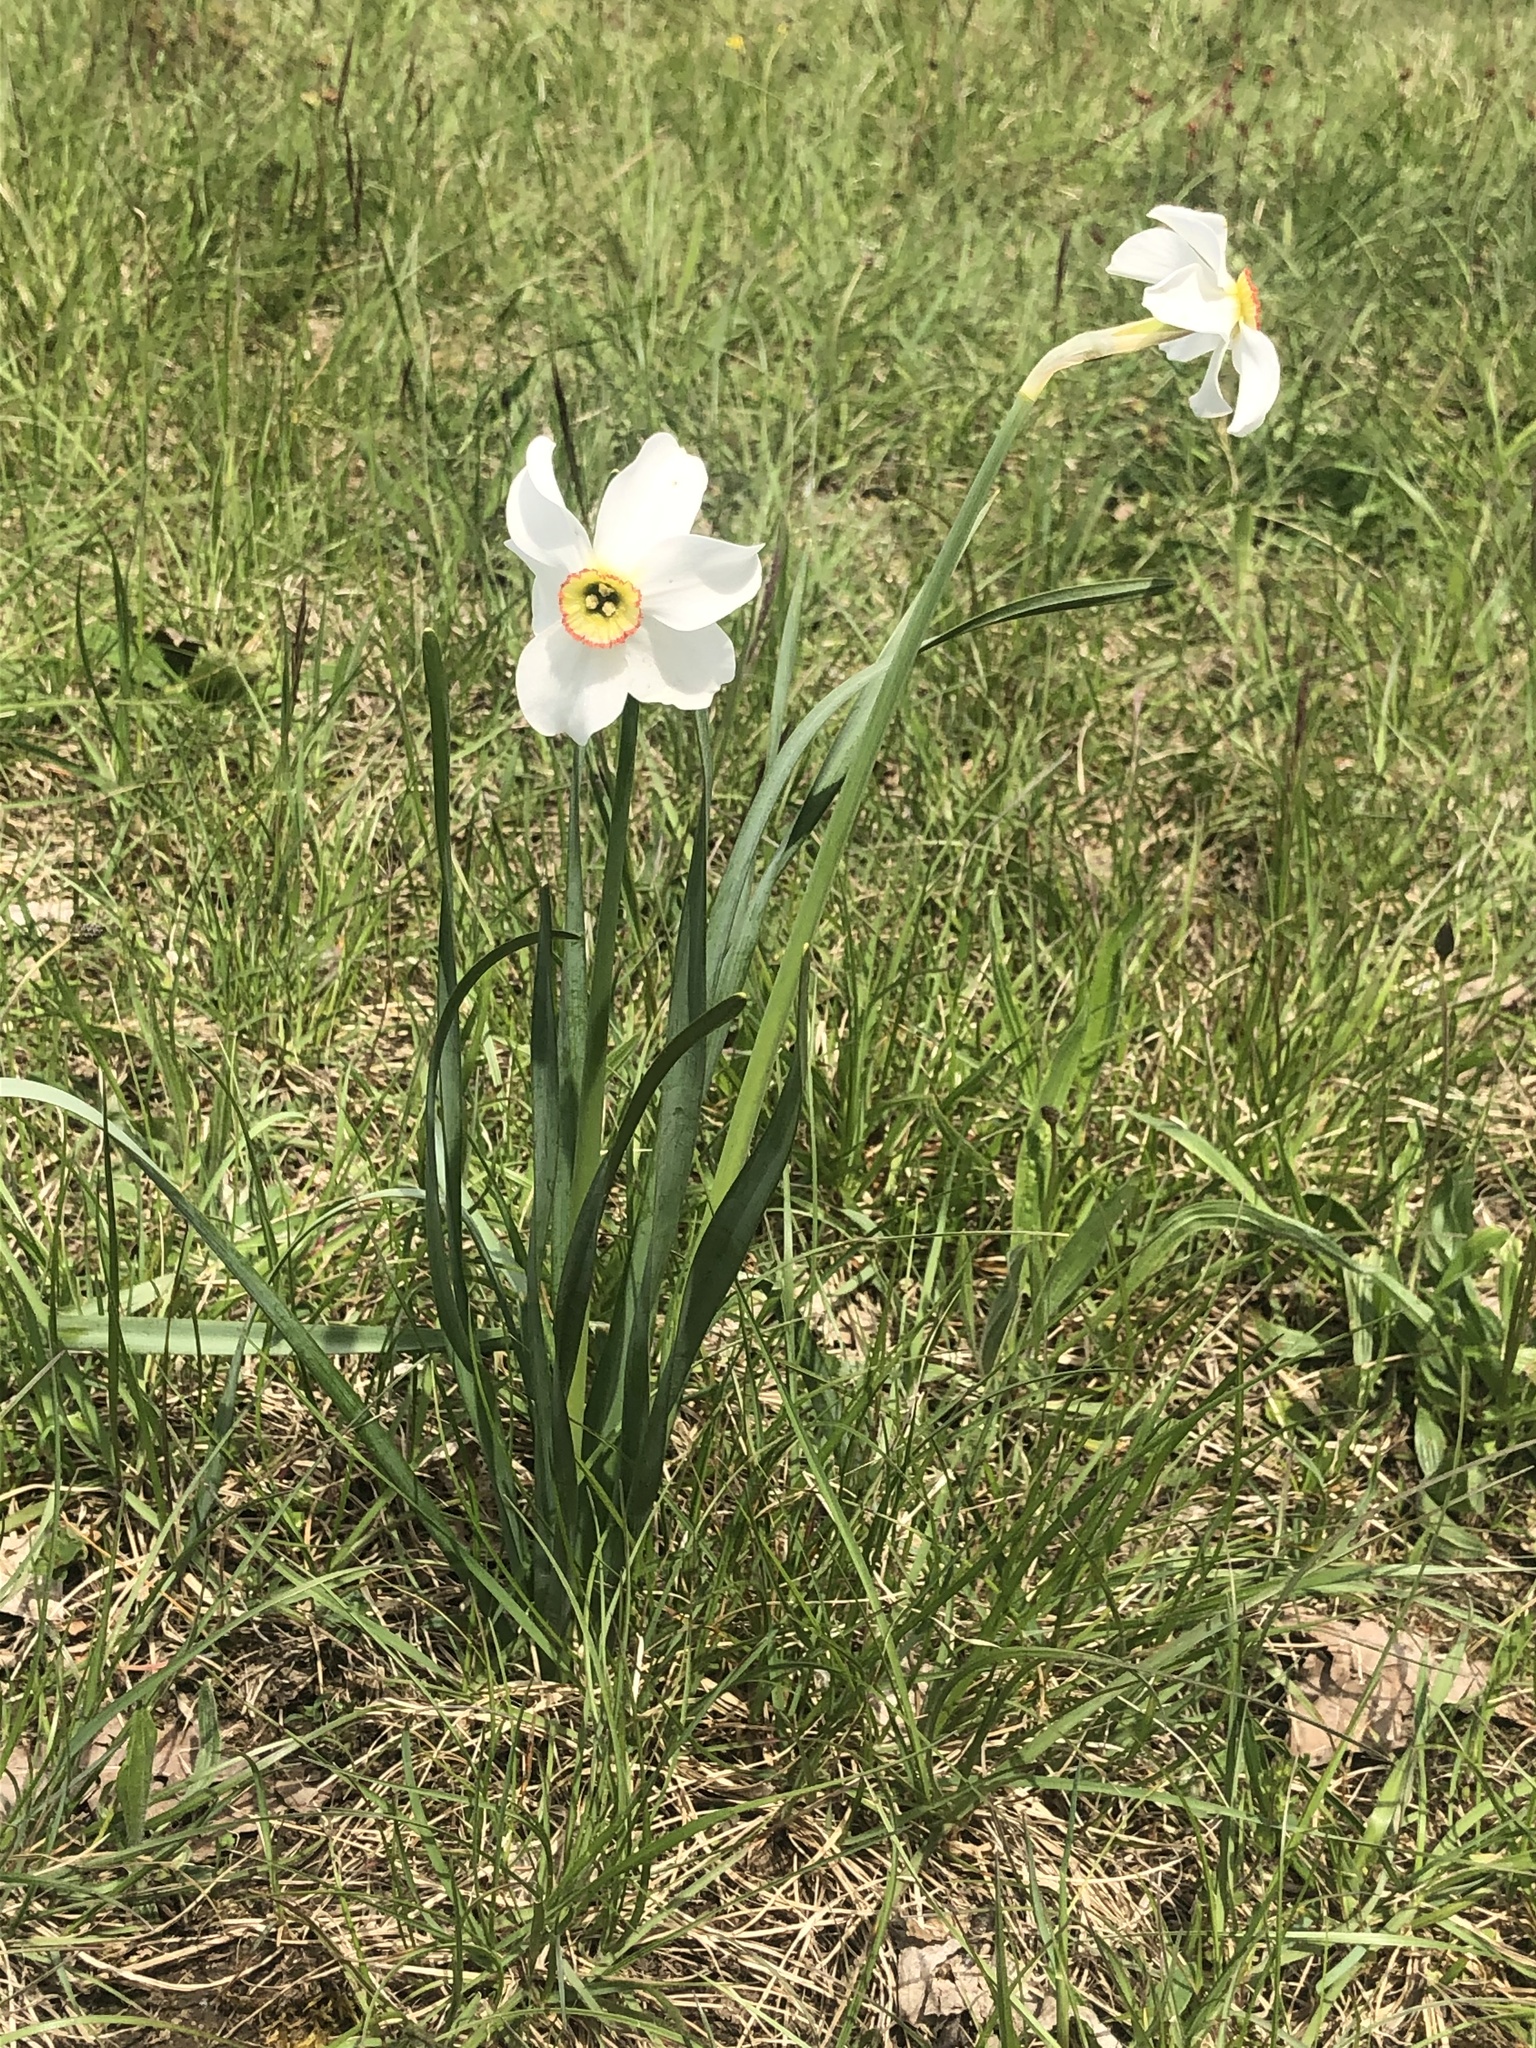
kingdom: Plantae
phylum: Tracheophyta
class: Liliopsida
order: Asparagales
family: Amaryllidaceae
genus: Narcissus
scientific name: Narcissus poeticus
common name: Pheasant's-eye daffodil
